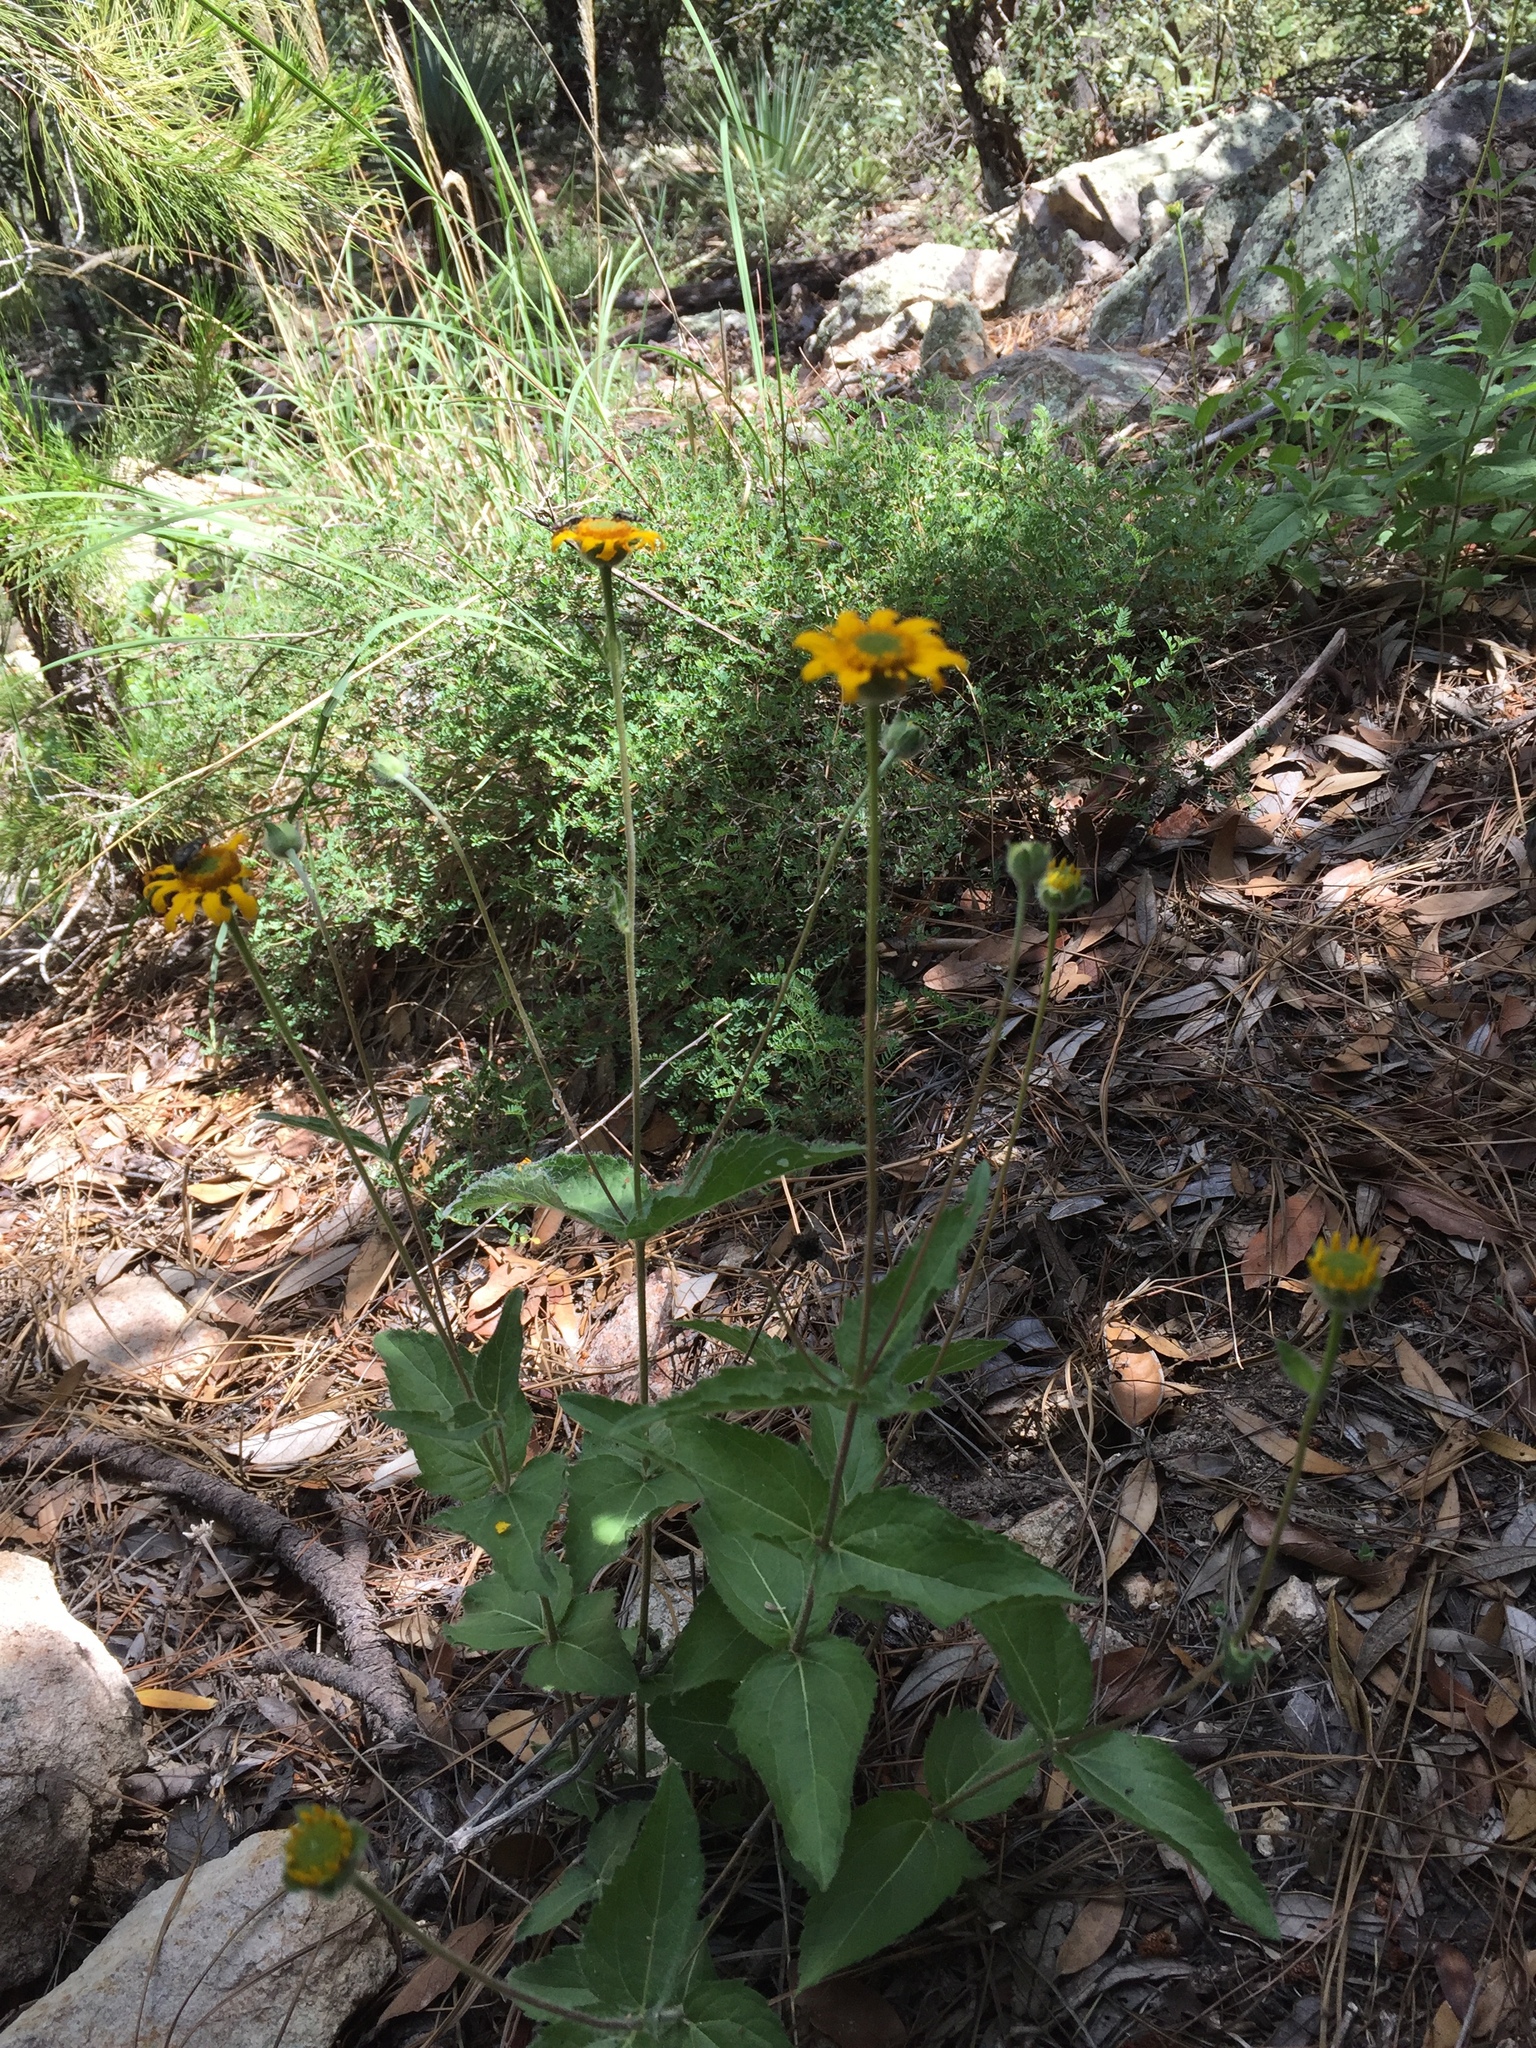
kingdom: Plantae
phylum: Tracheophyta
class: Magnoliopsida
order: Asterales
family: Asteraceae
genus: Lasianthaea
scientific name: Lasianthaea podocephala
